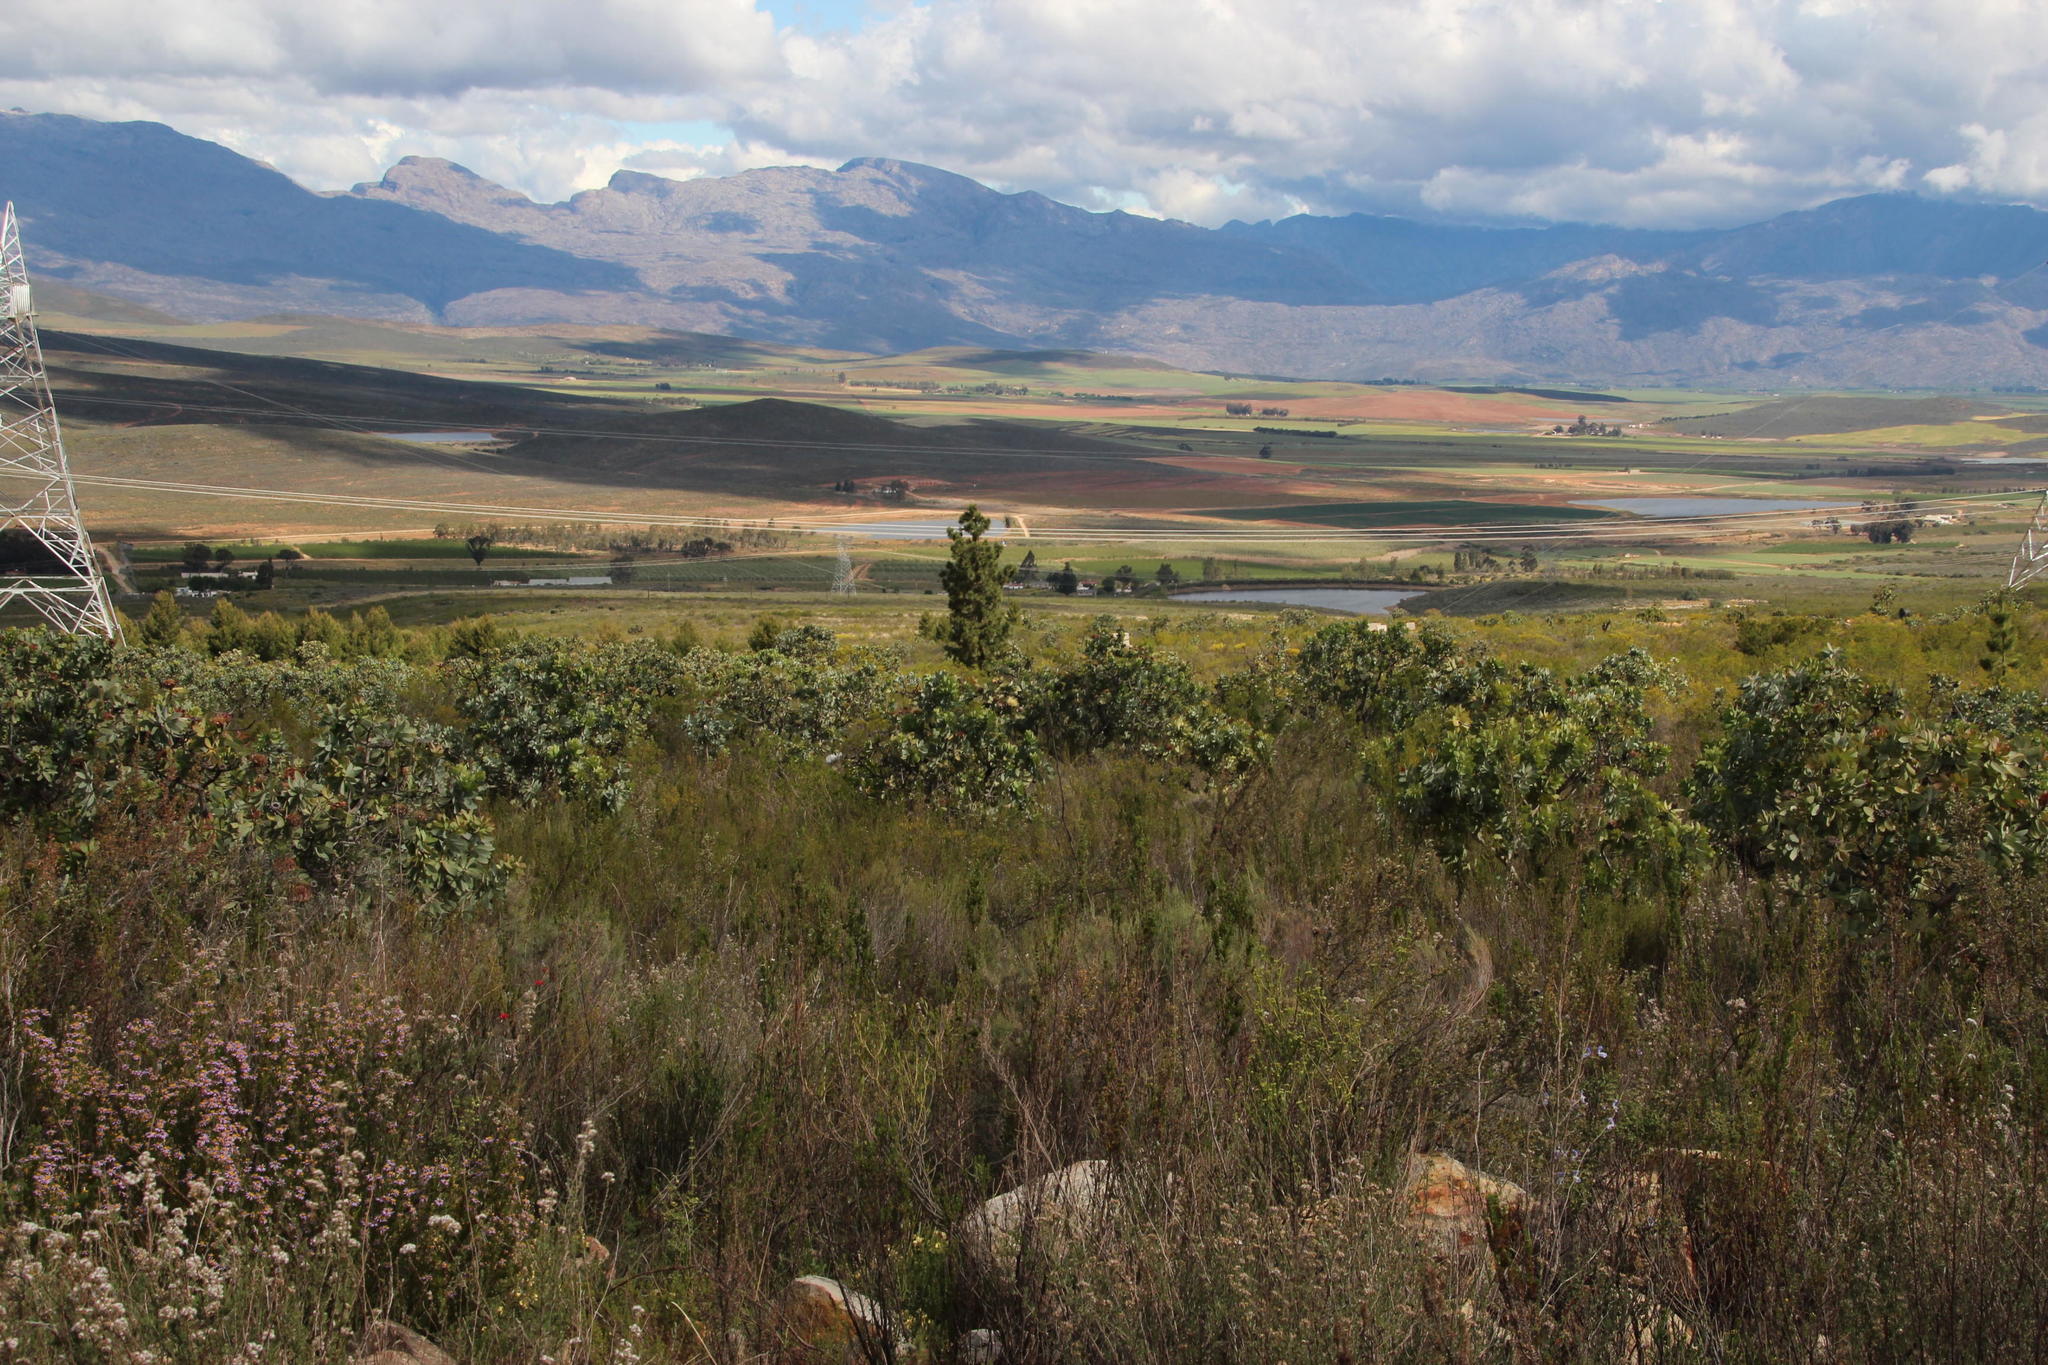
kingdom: Plantae
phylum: Tracheophyta
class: Magnoliopsida
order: Proteales
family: Proteaceae
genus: Protea
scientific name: Protea nitida
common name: Tree protea
